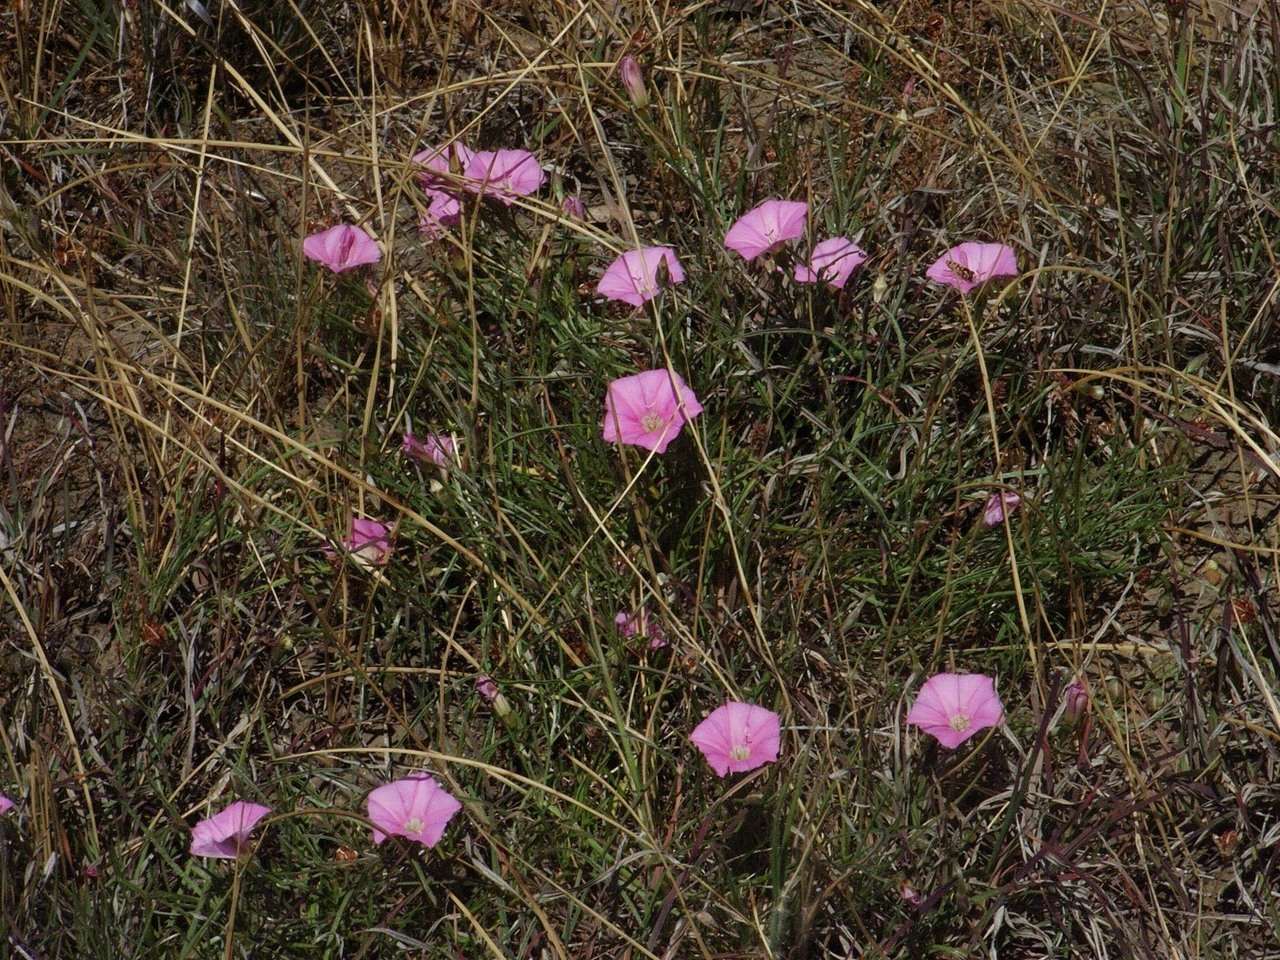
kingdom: Plantae
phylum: Tracheophyta
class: Magnoliopsida
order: Solanales
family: Convolvulaceae
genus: Convolvulus
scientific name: Convolvulus angustissimus
